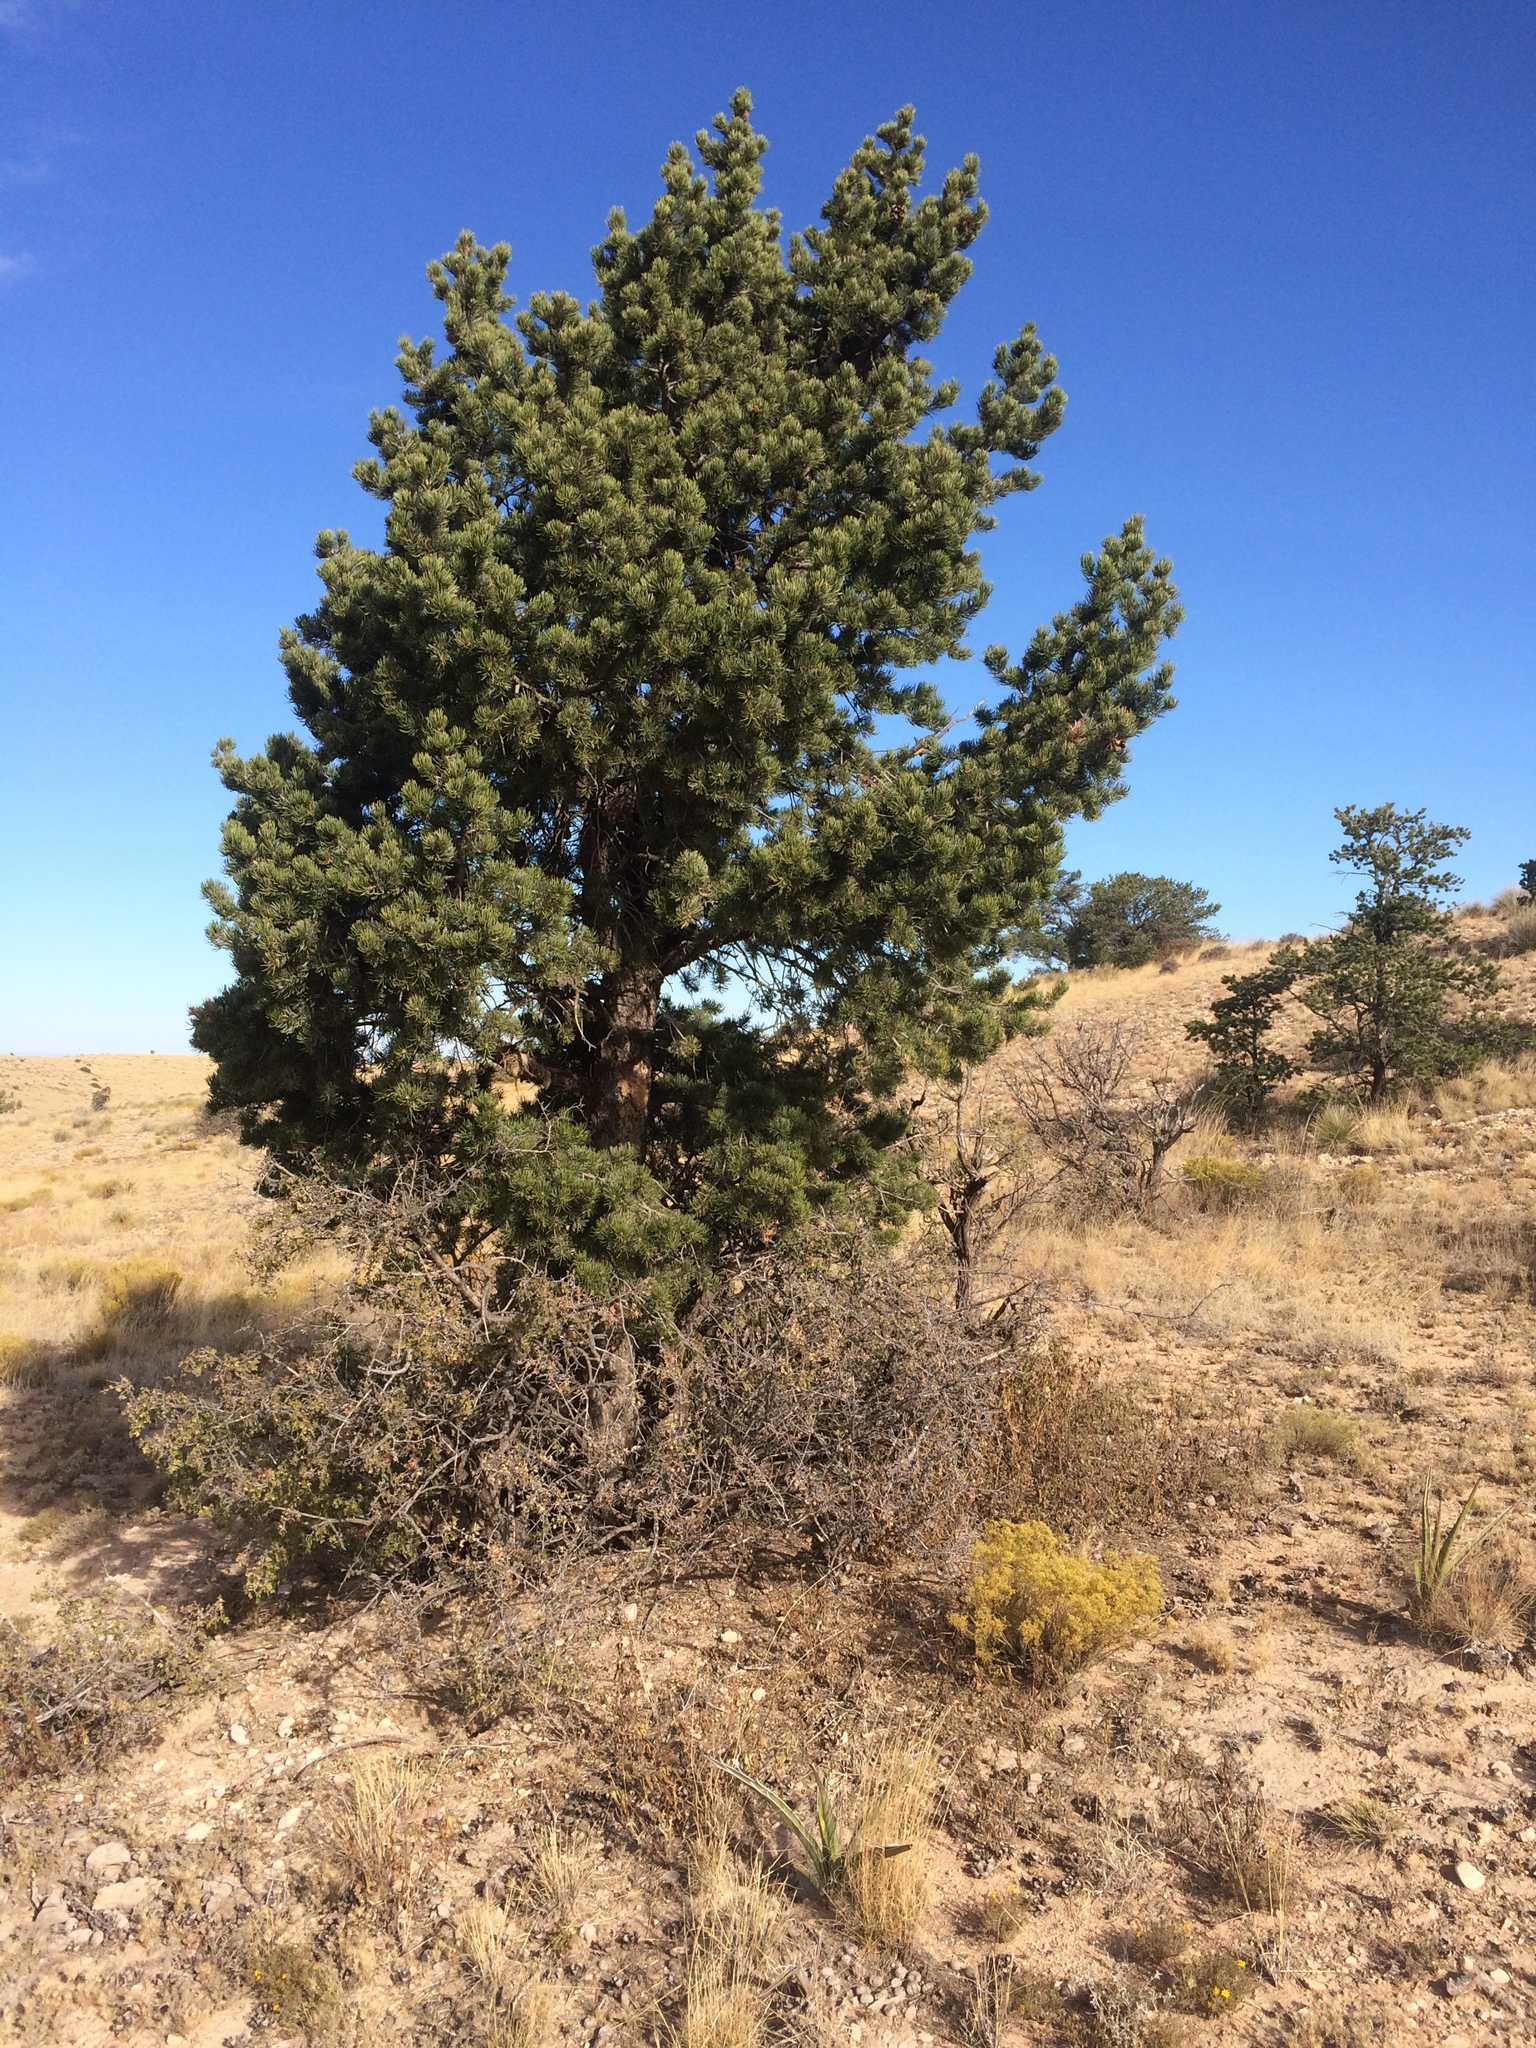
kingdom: Plantae
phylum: Tracheophyta
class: Pinopsida
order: Pinales
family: Pinaceae
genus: Pinus
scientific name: Pinus edulis
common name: Colorado pinyon
